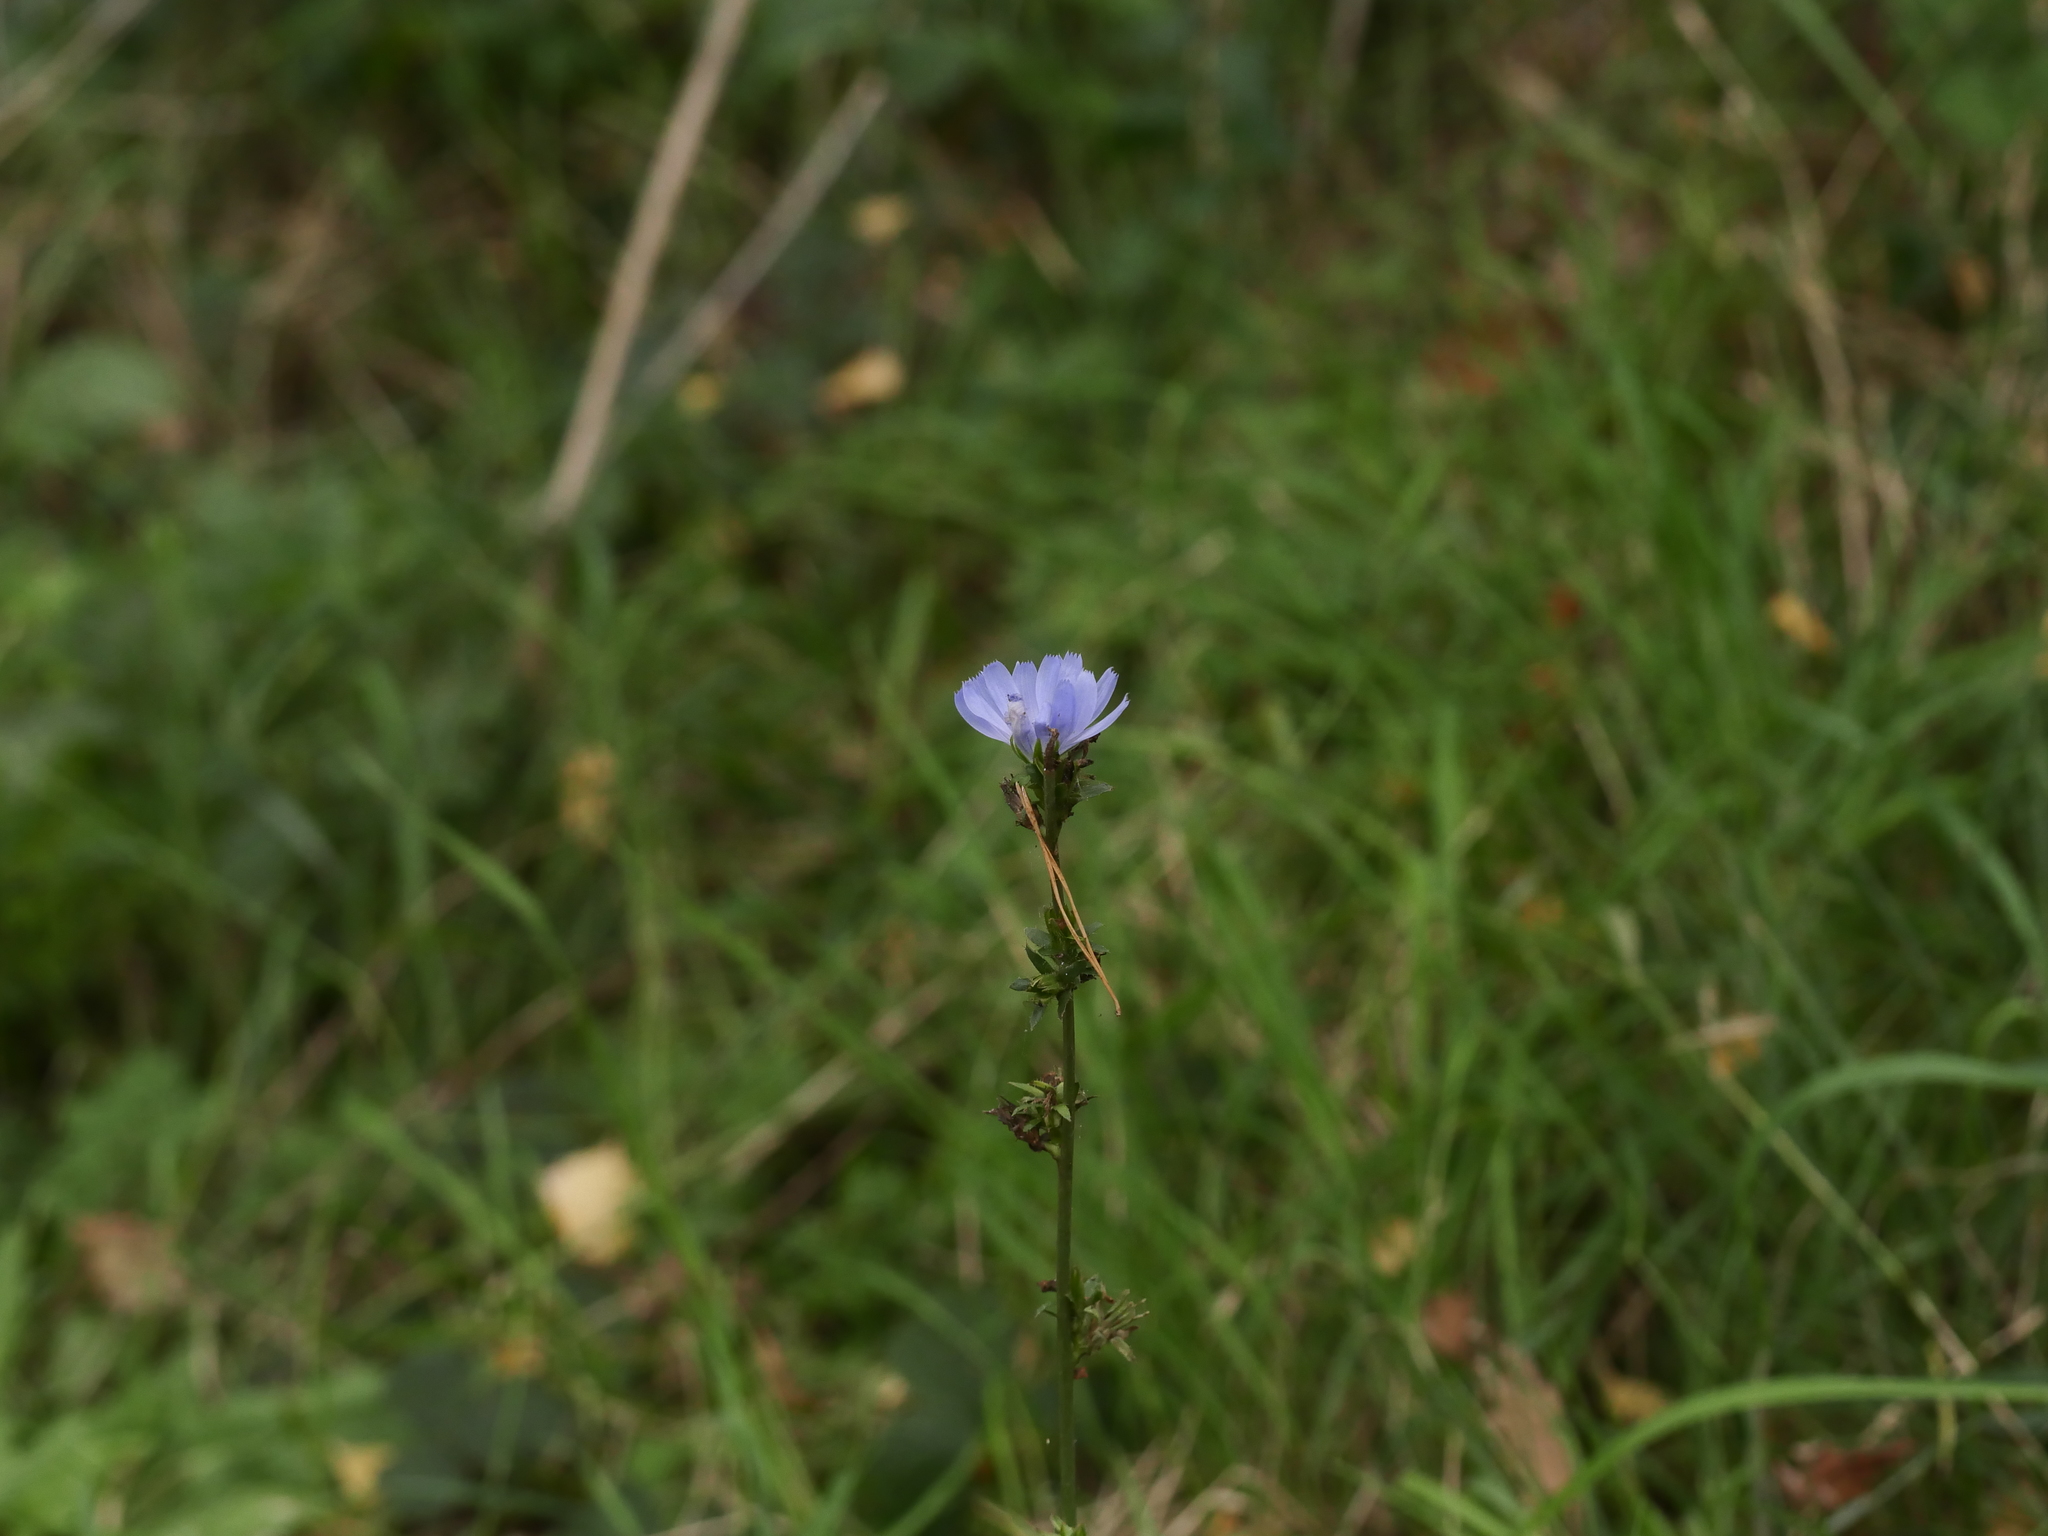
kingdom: Plantae
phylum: Tracheophyta
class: Magnoliopsida
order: Asterales
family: Asteraceae
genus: Cichorium
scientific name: Cichorium intybus
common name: Chicory
